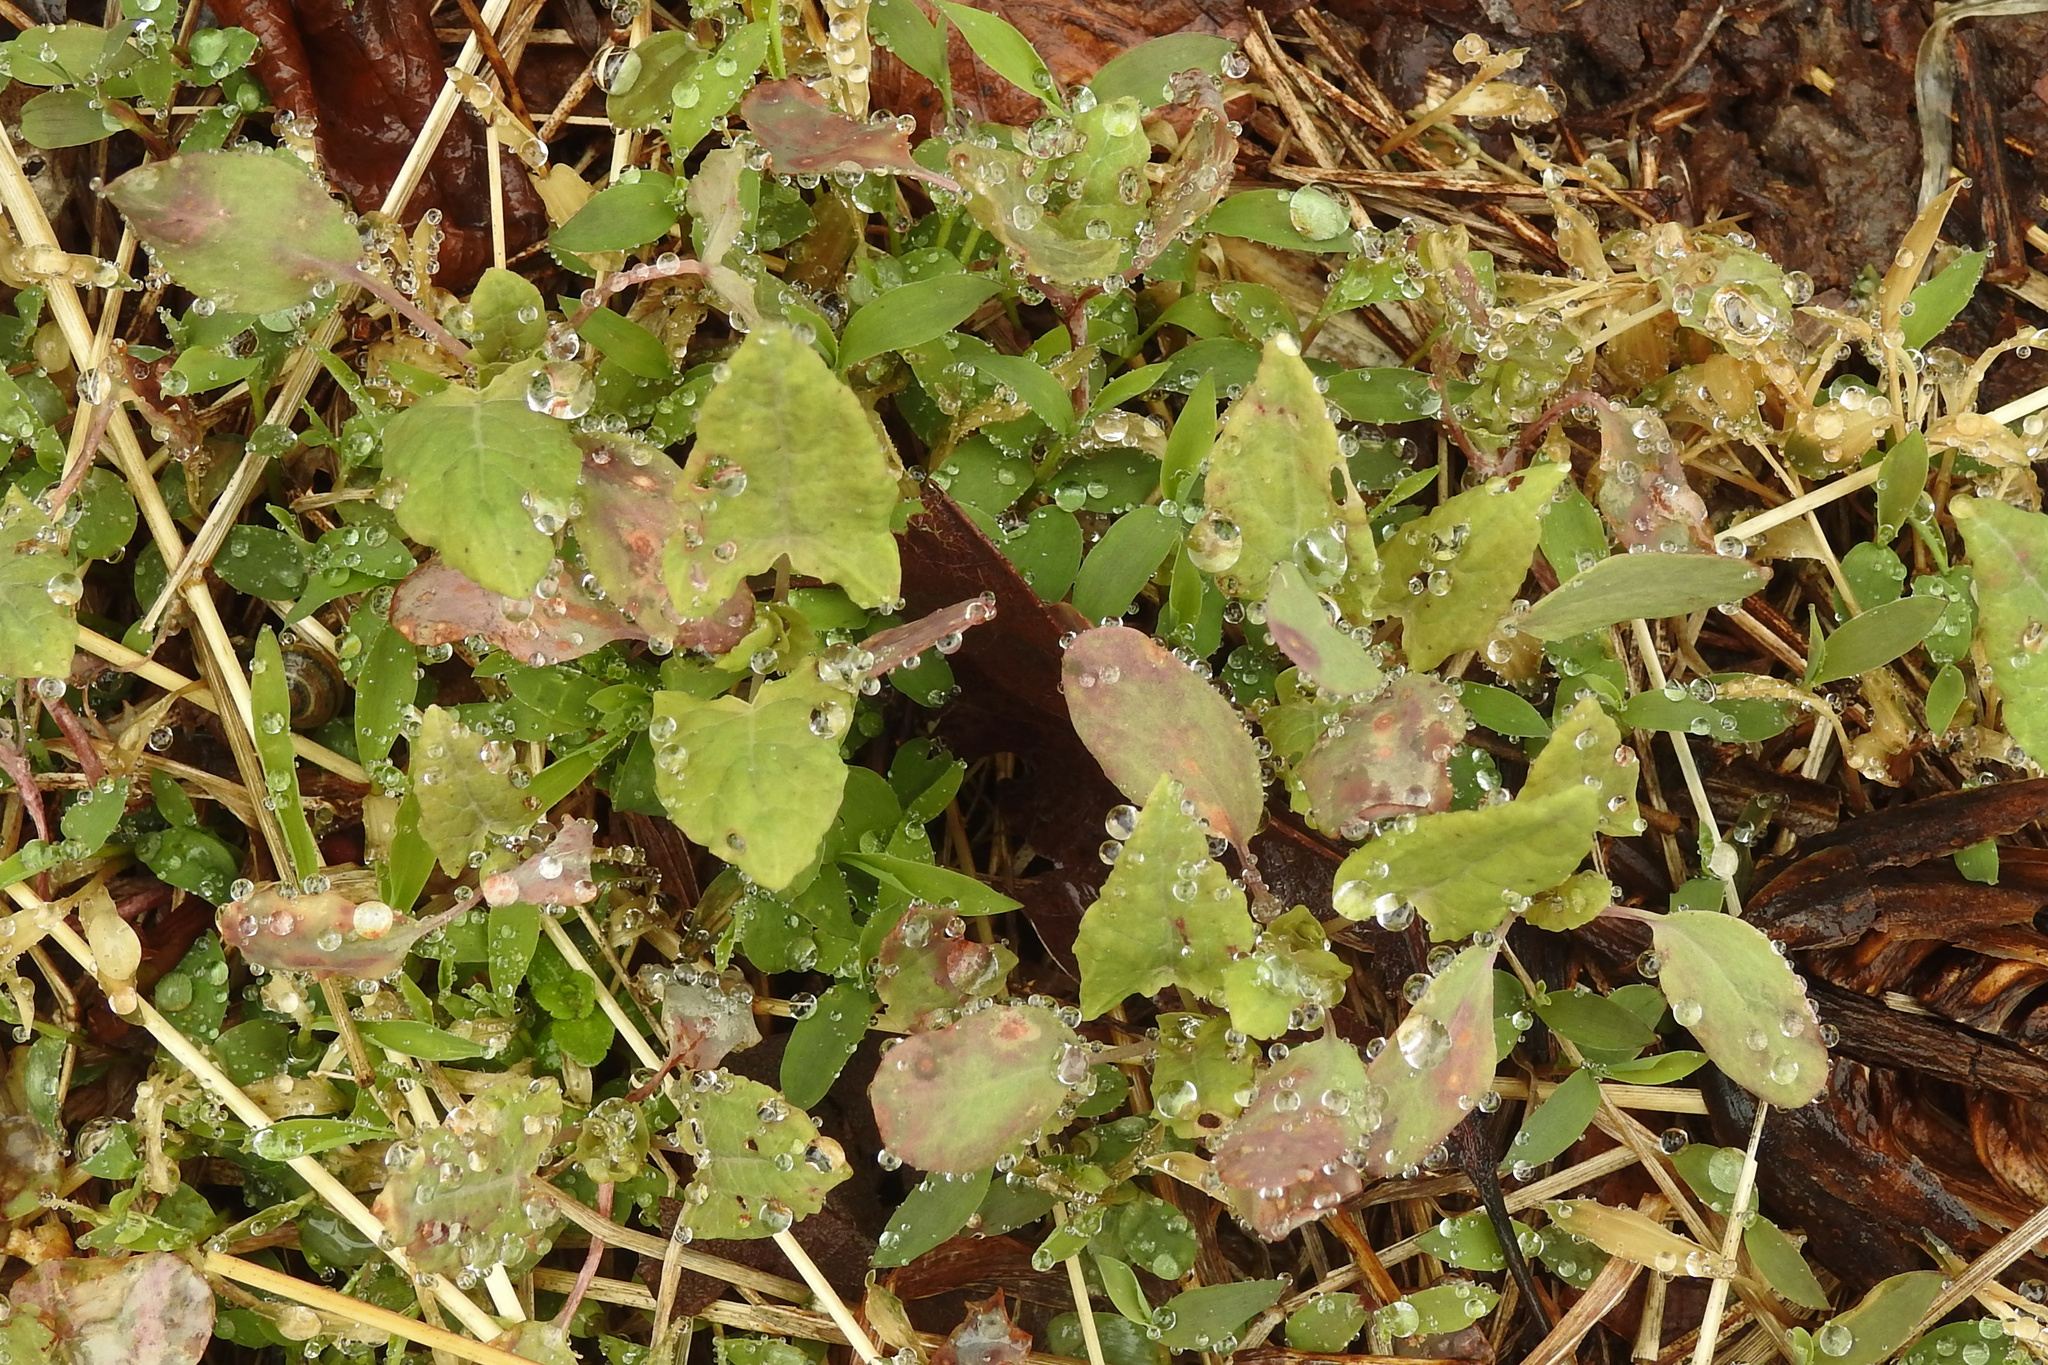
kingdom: Plantae
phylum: Tracheophyta
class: Magnoliopsida
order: Caryophyllales
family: Polygonaceae
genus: Persicaria
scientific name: Persicaria perfoliata
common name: Asiatic tearthumb
